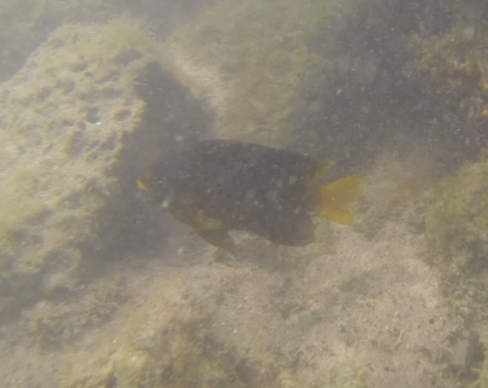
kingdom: Animalia
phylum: Chordata
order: Perciformes
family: Pomacentridae
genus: Stegastes
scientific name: Stegastes arcifrons
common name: Galapagos gregory
